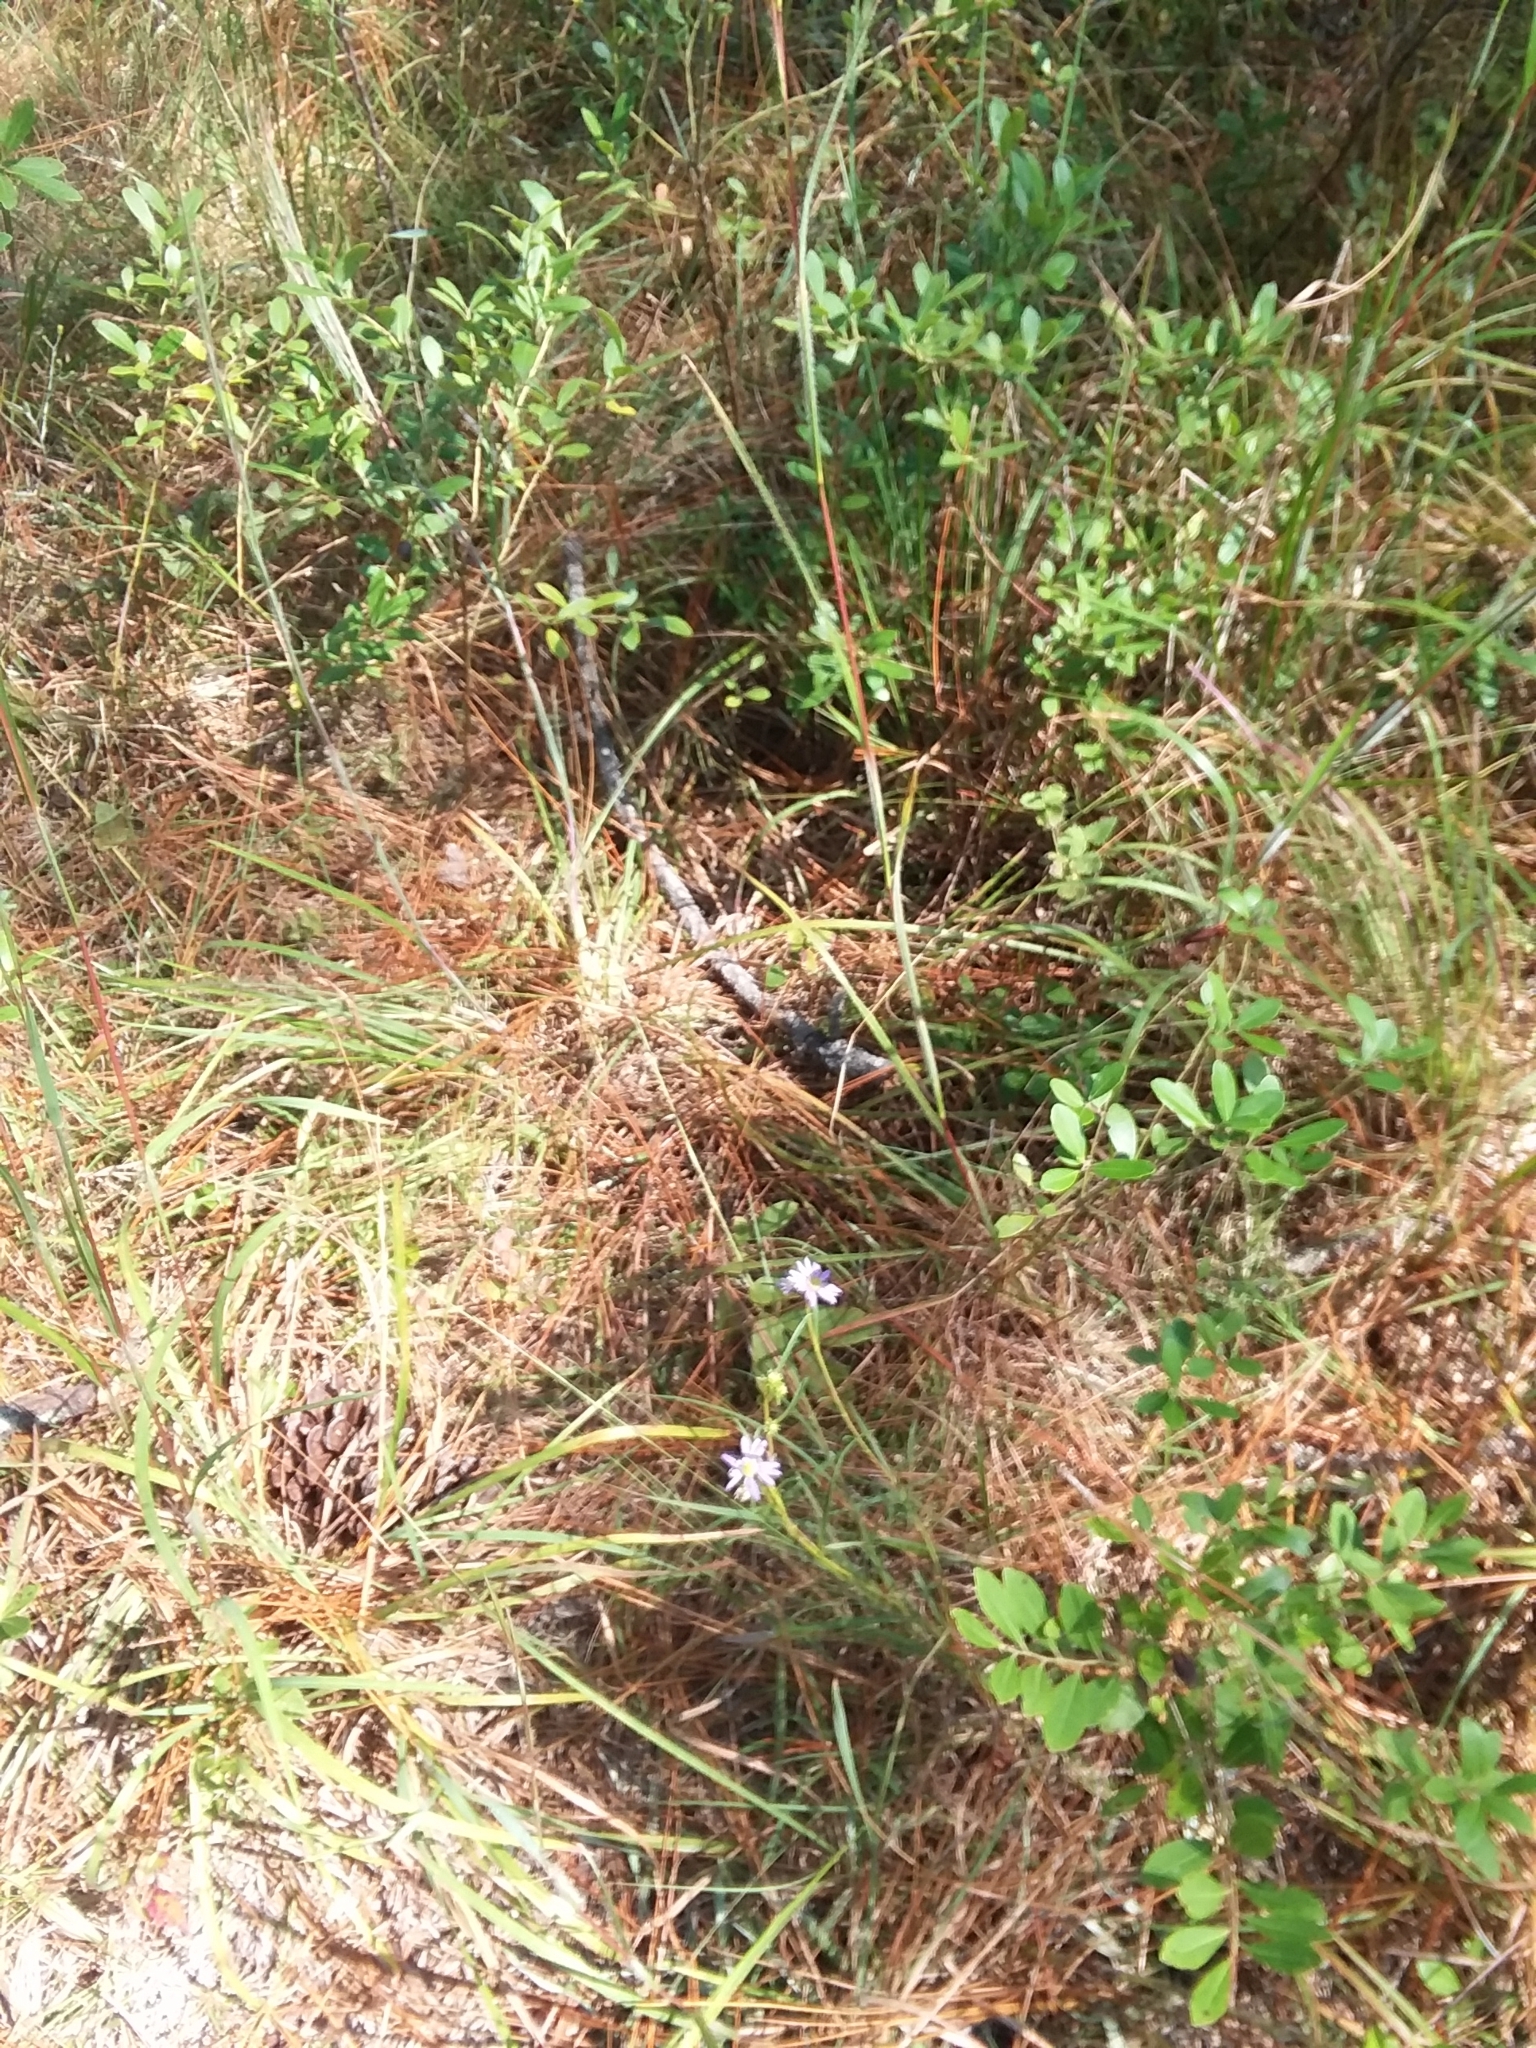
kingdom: Plantae
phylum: Tracheophyta
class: Magnoliopsida
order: Asterales
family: Asteraceae
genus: Eurybia
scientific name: Eurybia hemispherica
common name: Showy aster
